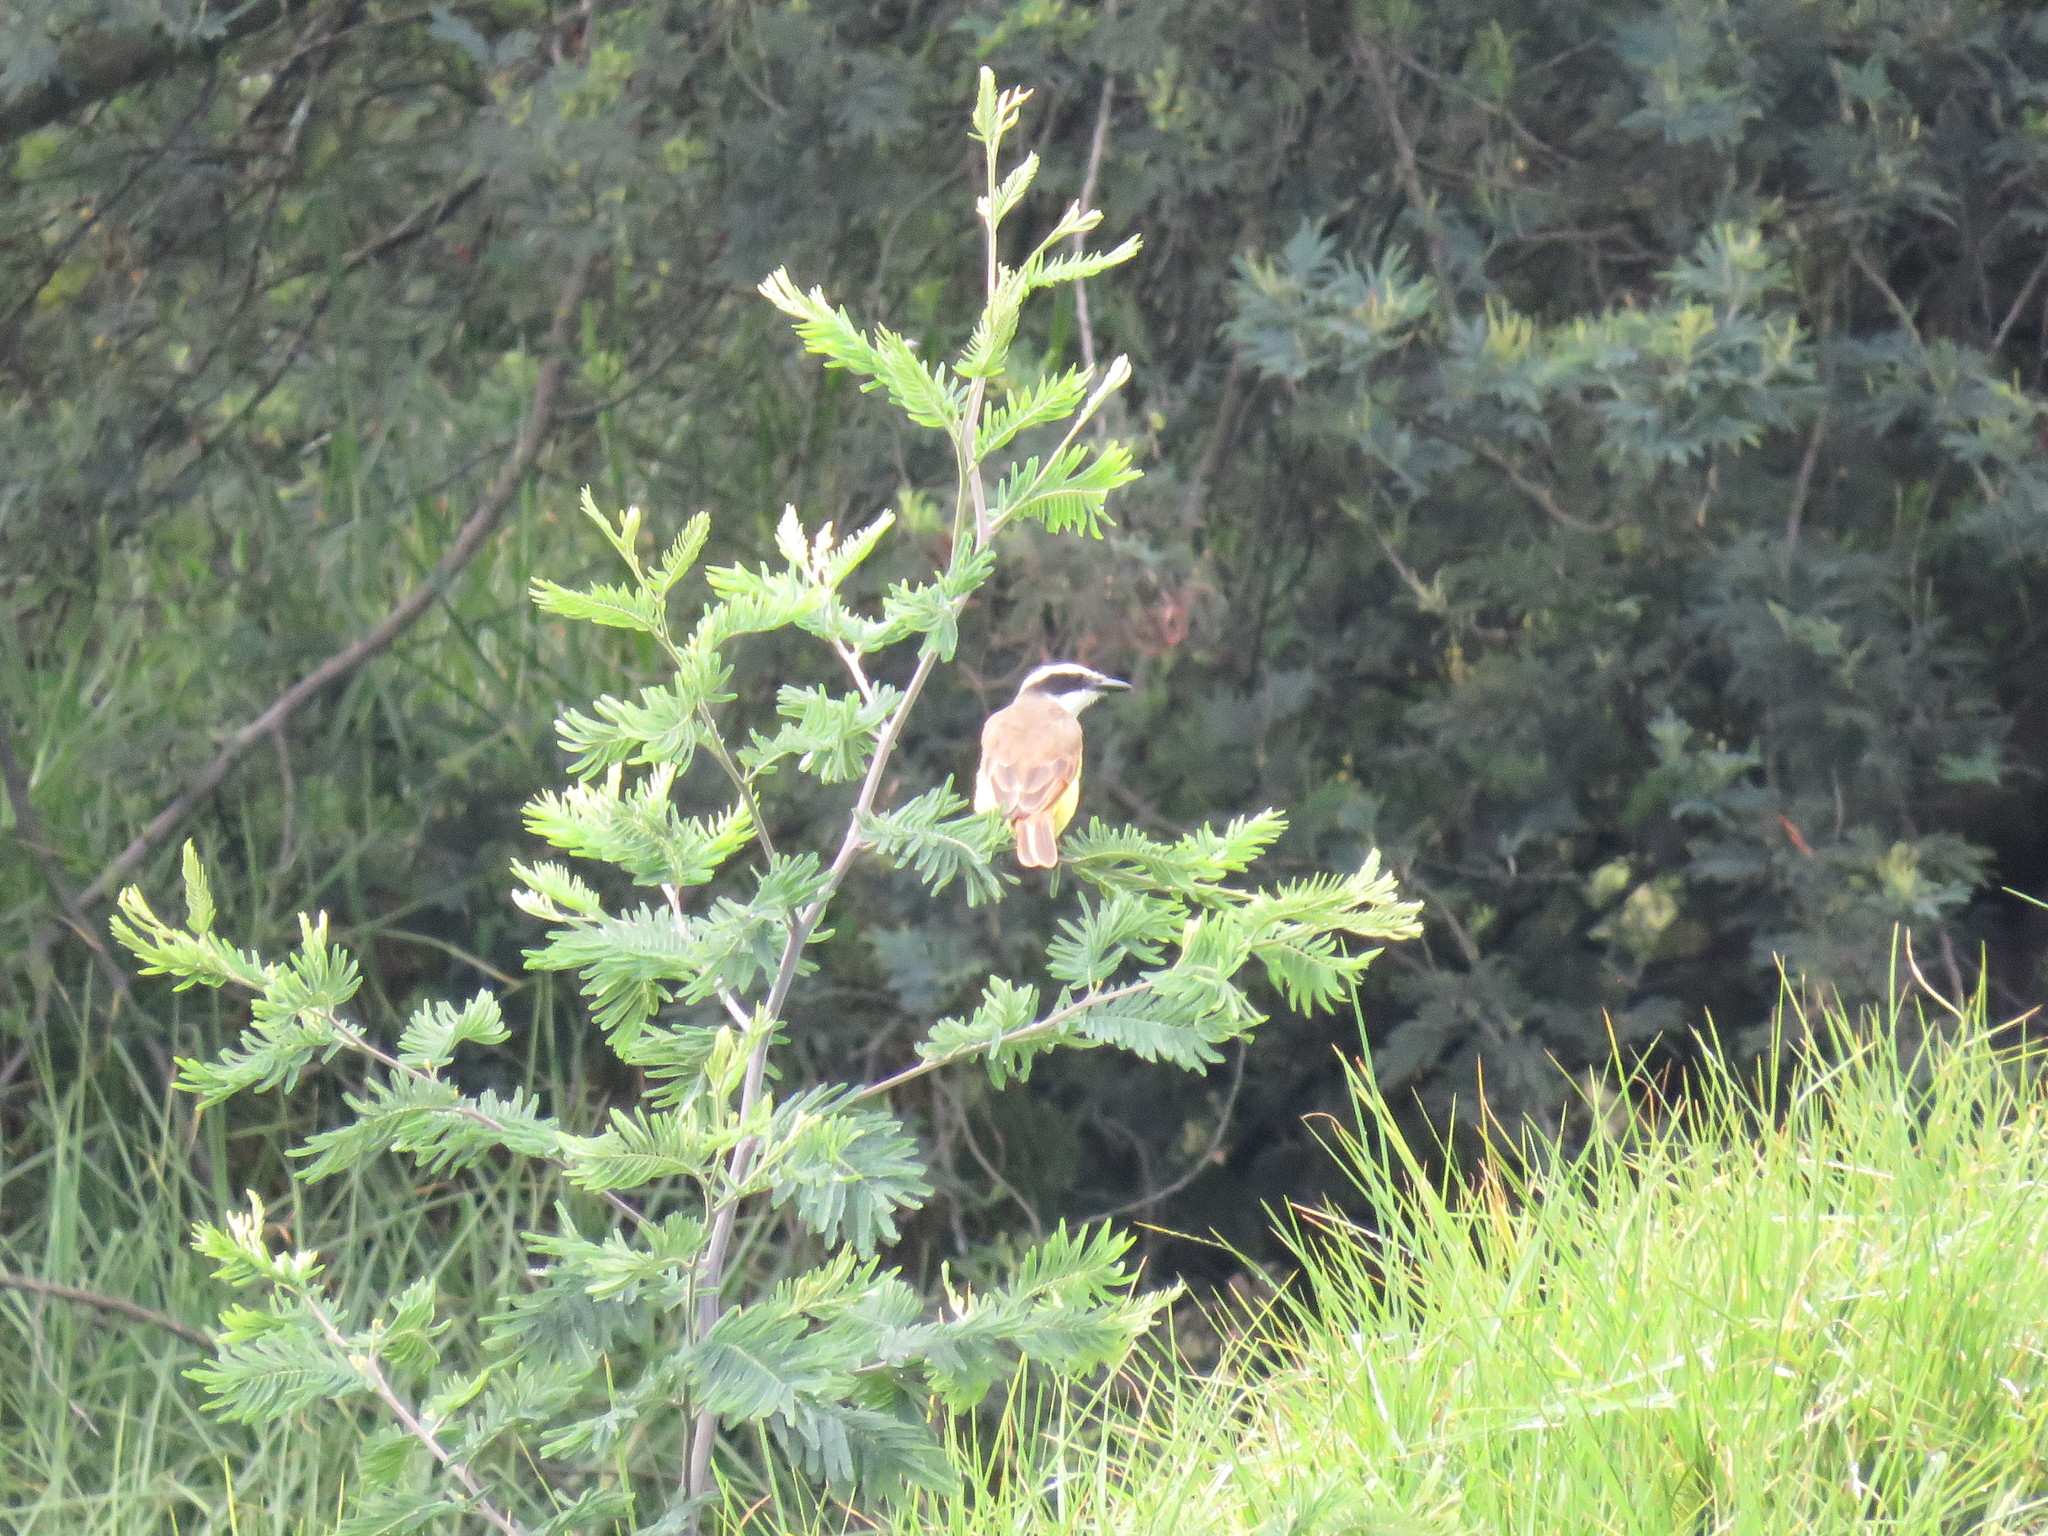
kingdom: Animalia
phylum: Chordata
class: Aves
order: Passeriformes
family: Tyrannidae
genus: Pitangus
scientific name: Pitangus sulphuratus
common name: Great kiskadee
